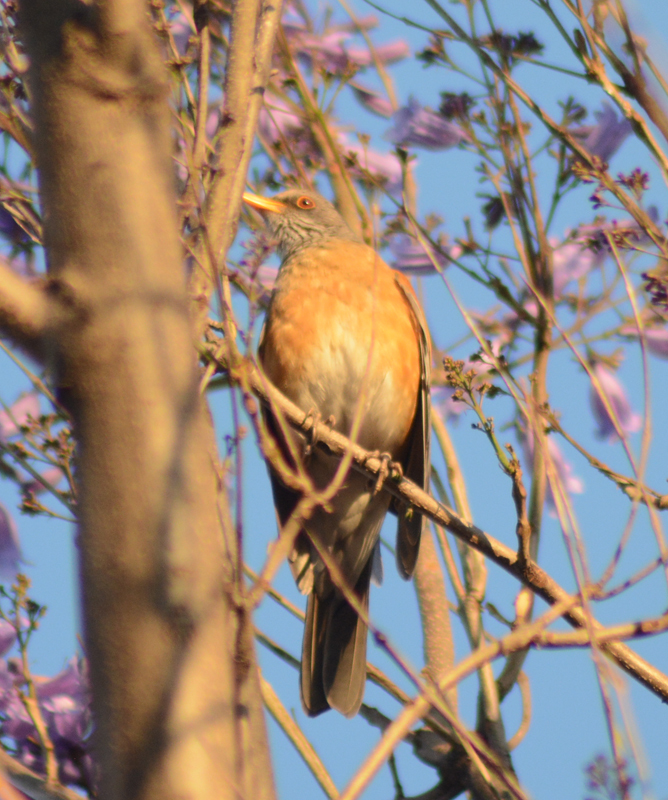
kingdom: Animalia
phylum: Chordata
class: Aves
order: Passeriformes
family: Turdidae
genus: Turdus
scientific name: Turdus rufopalliatus
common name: Rufous-backed robin
